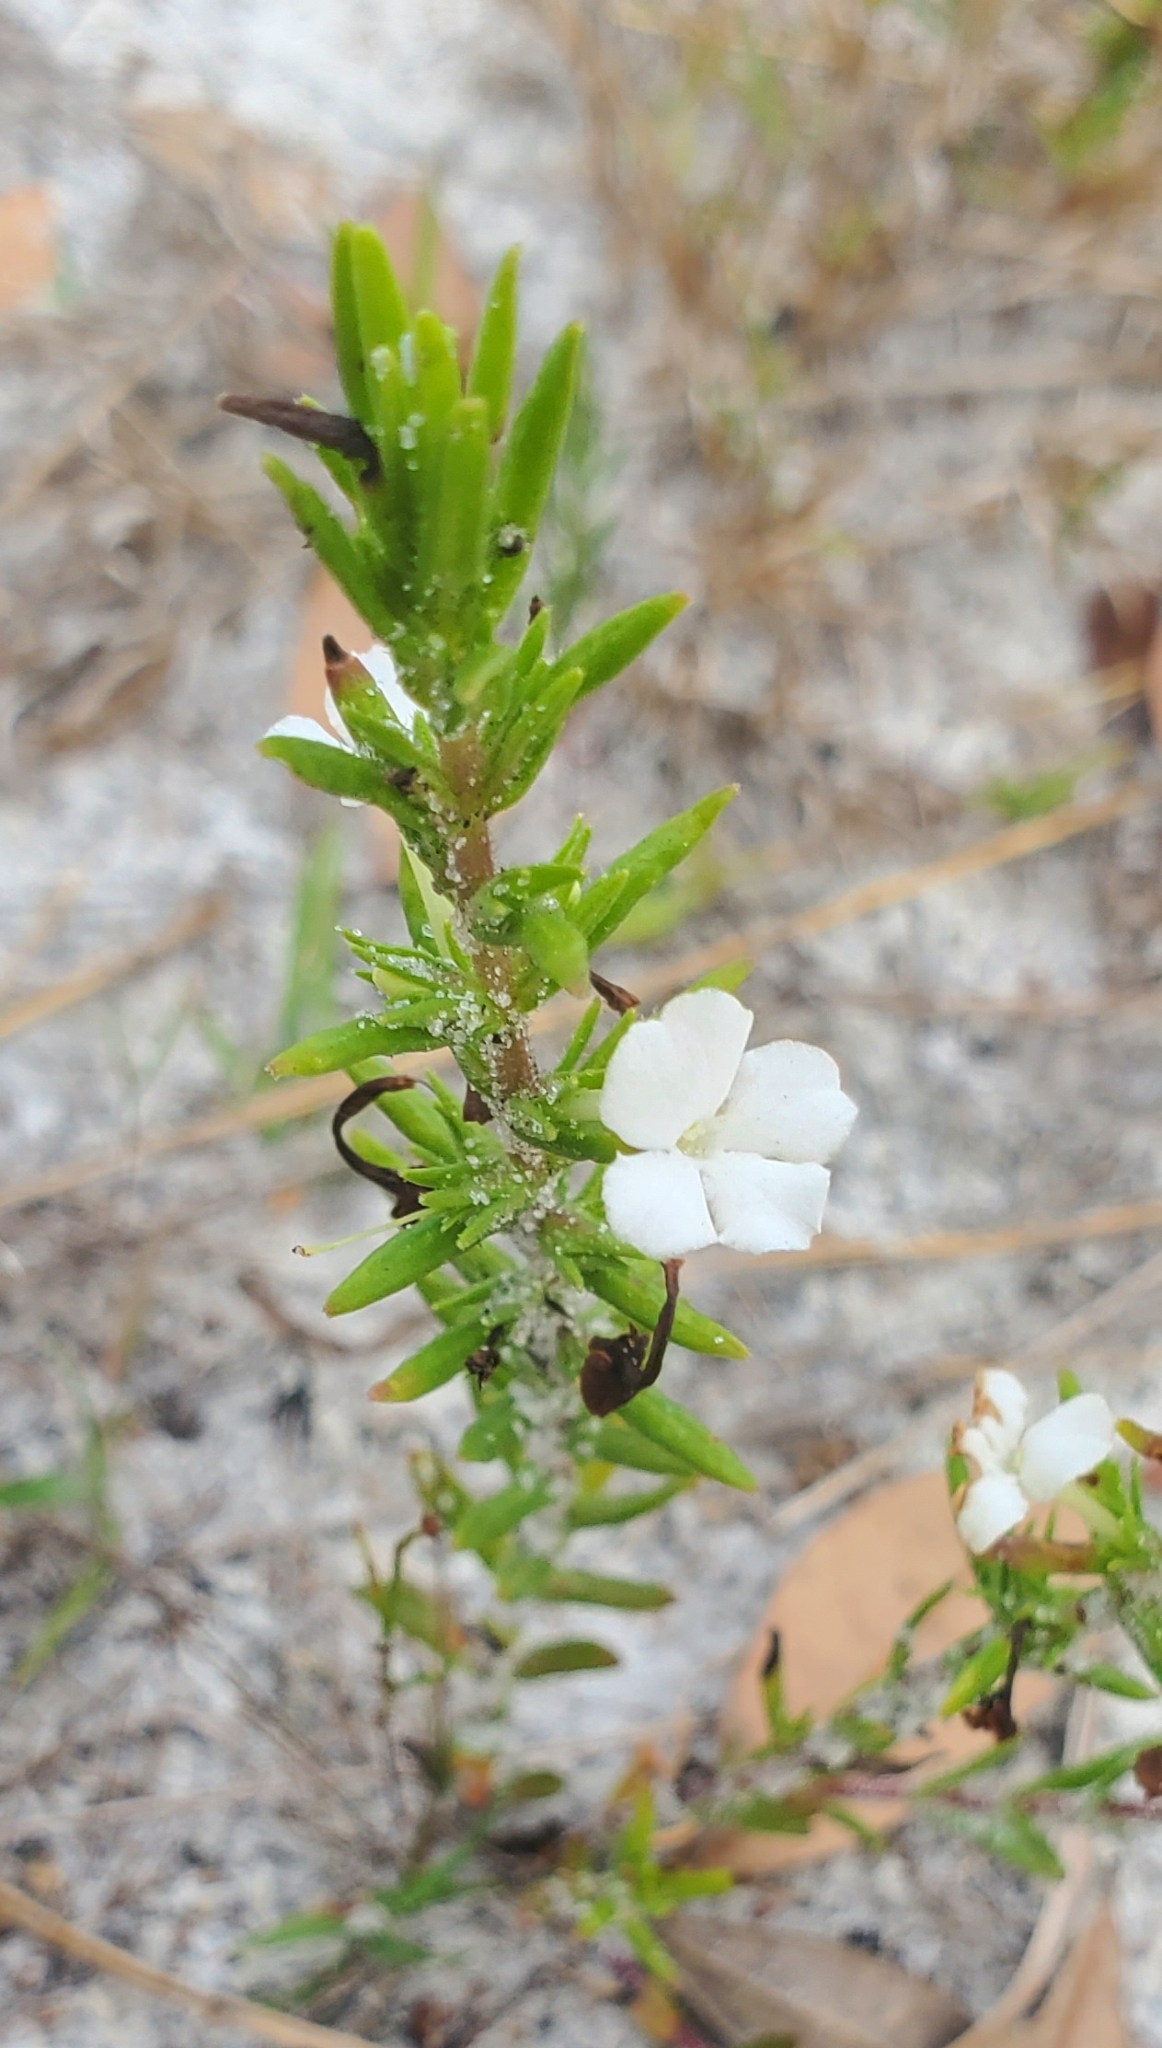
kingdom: Plantae
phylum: Tracheophyta
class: Magnoliopsida
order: Lamiales
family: Plantaginaceae
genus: Gratiola
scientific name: Gratiola hispida
